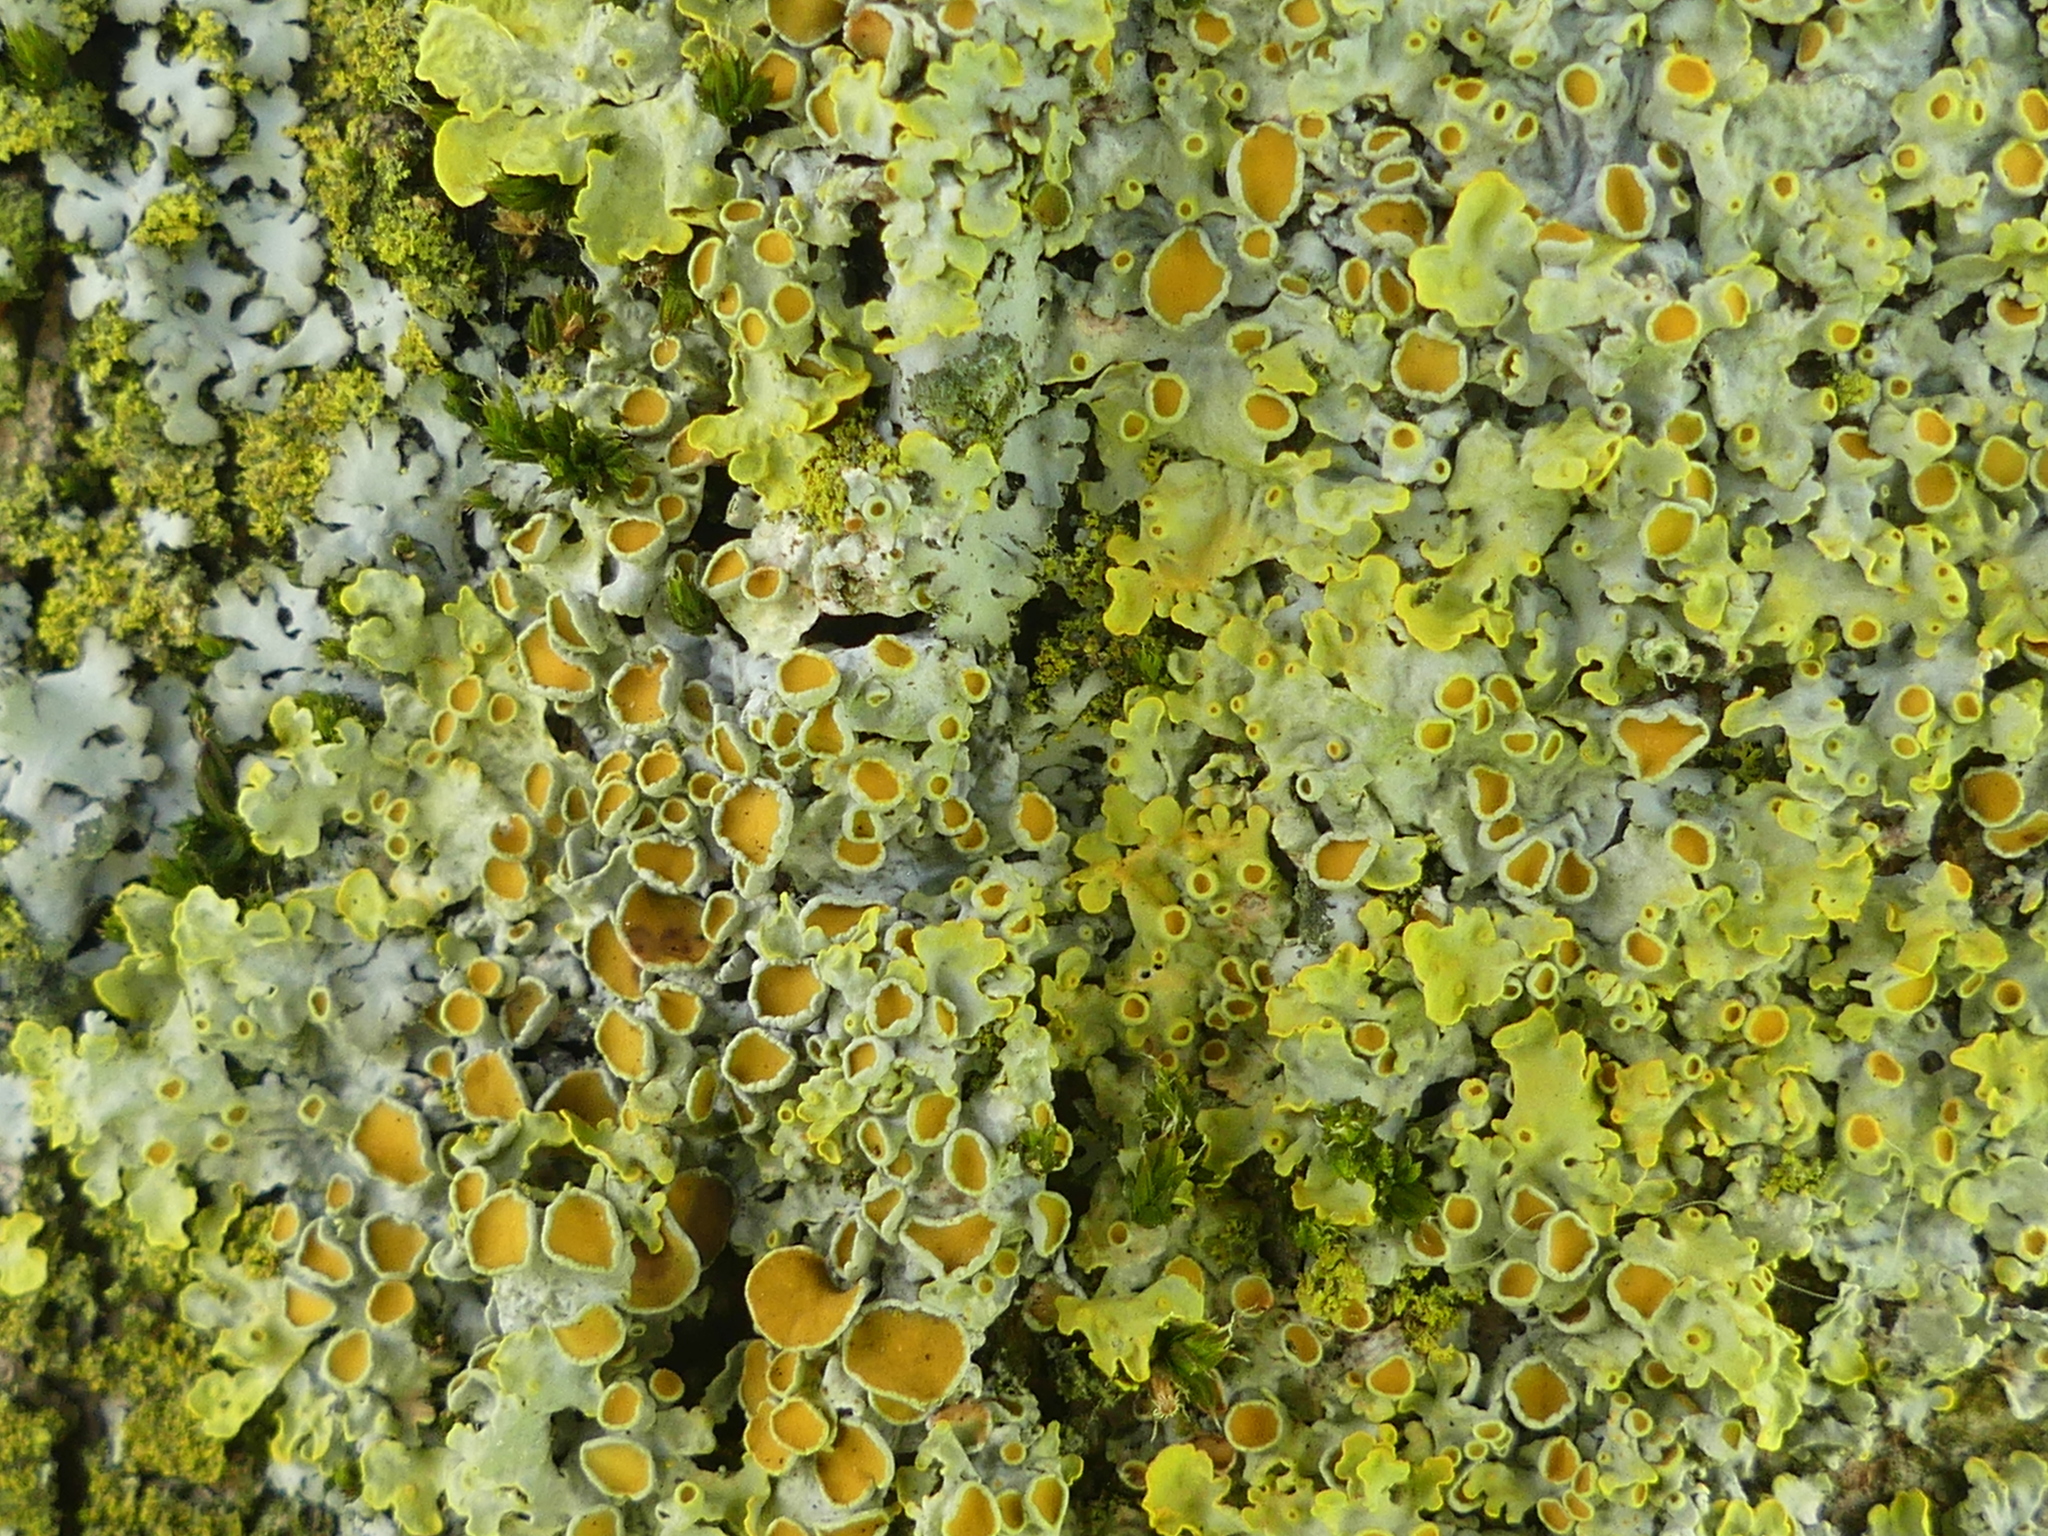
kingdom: Fungi
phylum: Ascomycota
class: Lecanoromycetes
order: Teloschistales
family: Teloschistaceae
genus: Xanthoria
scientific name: Xanthoria parietina
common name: Common orange lichen
